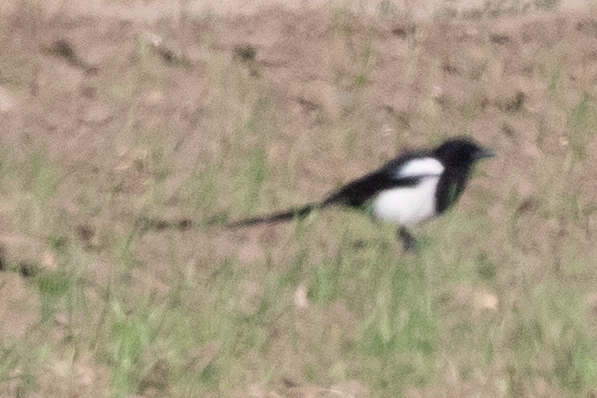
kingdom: Animalia
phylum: Chordata
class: Aves
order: Passeriformes
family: Corvidae
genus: Pica
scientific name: Pica pica
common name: Eurasian magpie
